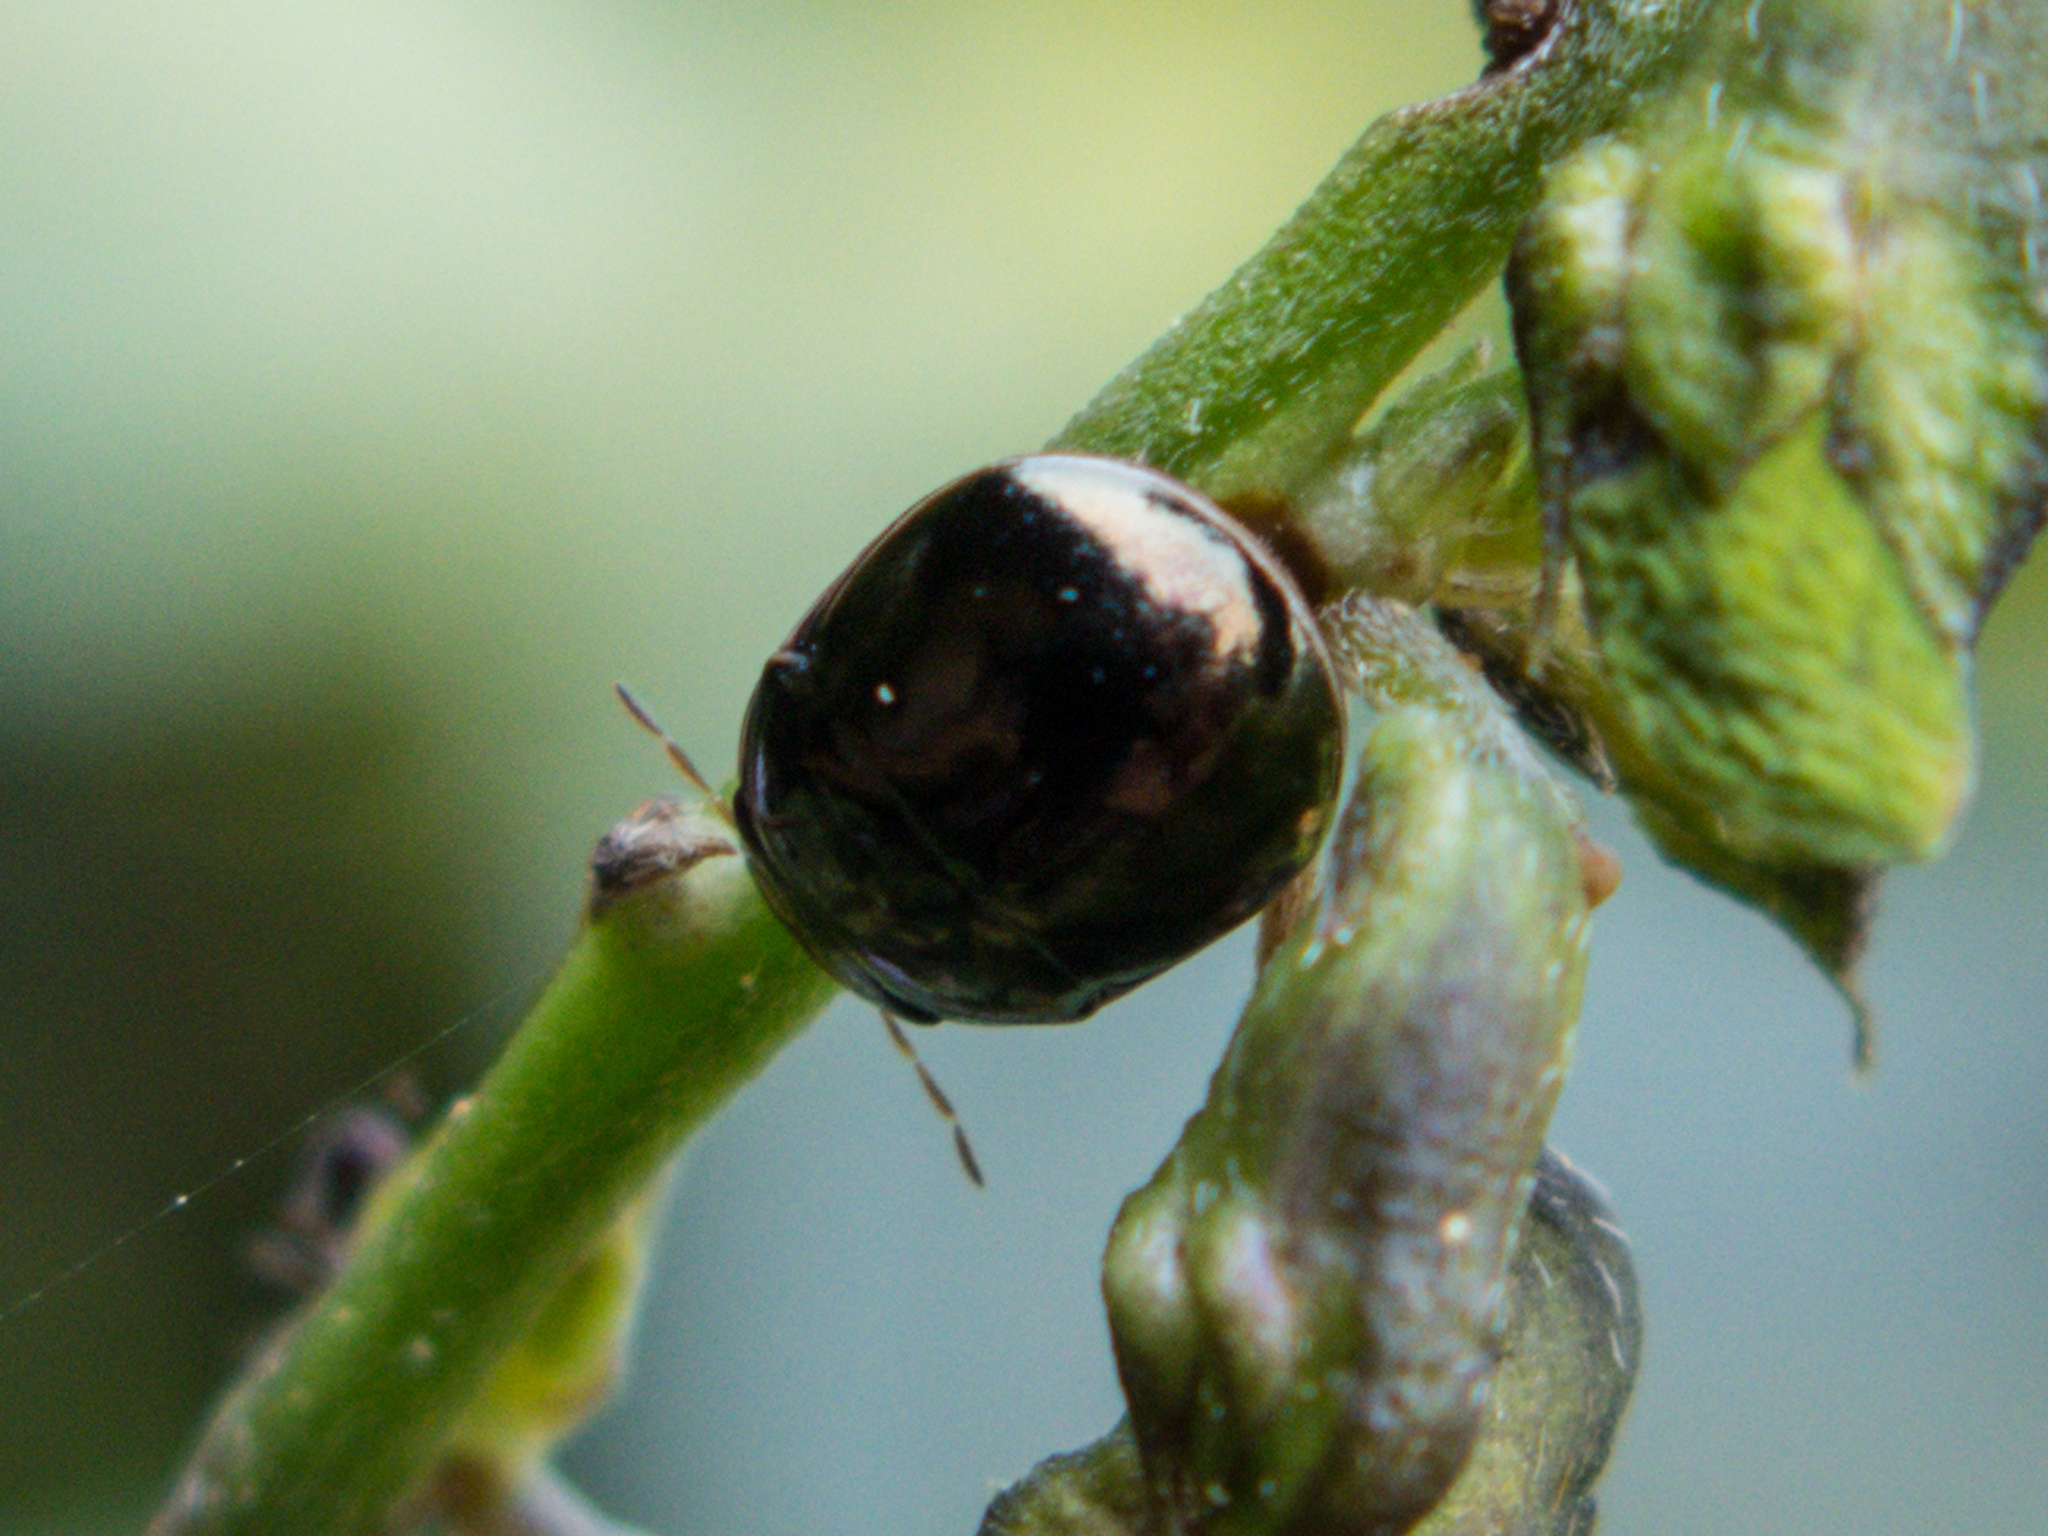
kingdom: Animalia
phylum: Arthropoda
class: Insecta
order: Hemiptera
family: Plataspidae
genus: Brachyplatys
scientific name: Brachyplatys subaeneus
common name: Black bean bug
